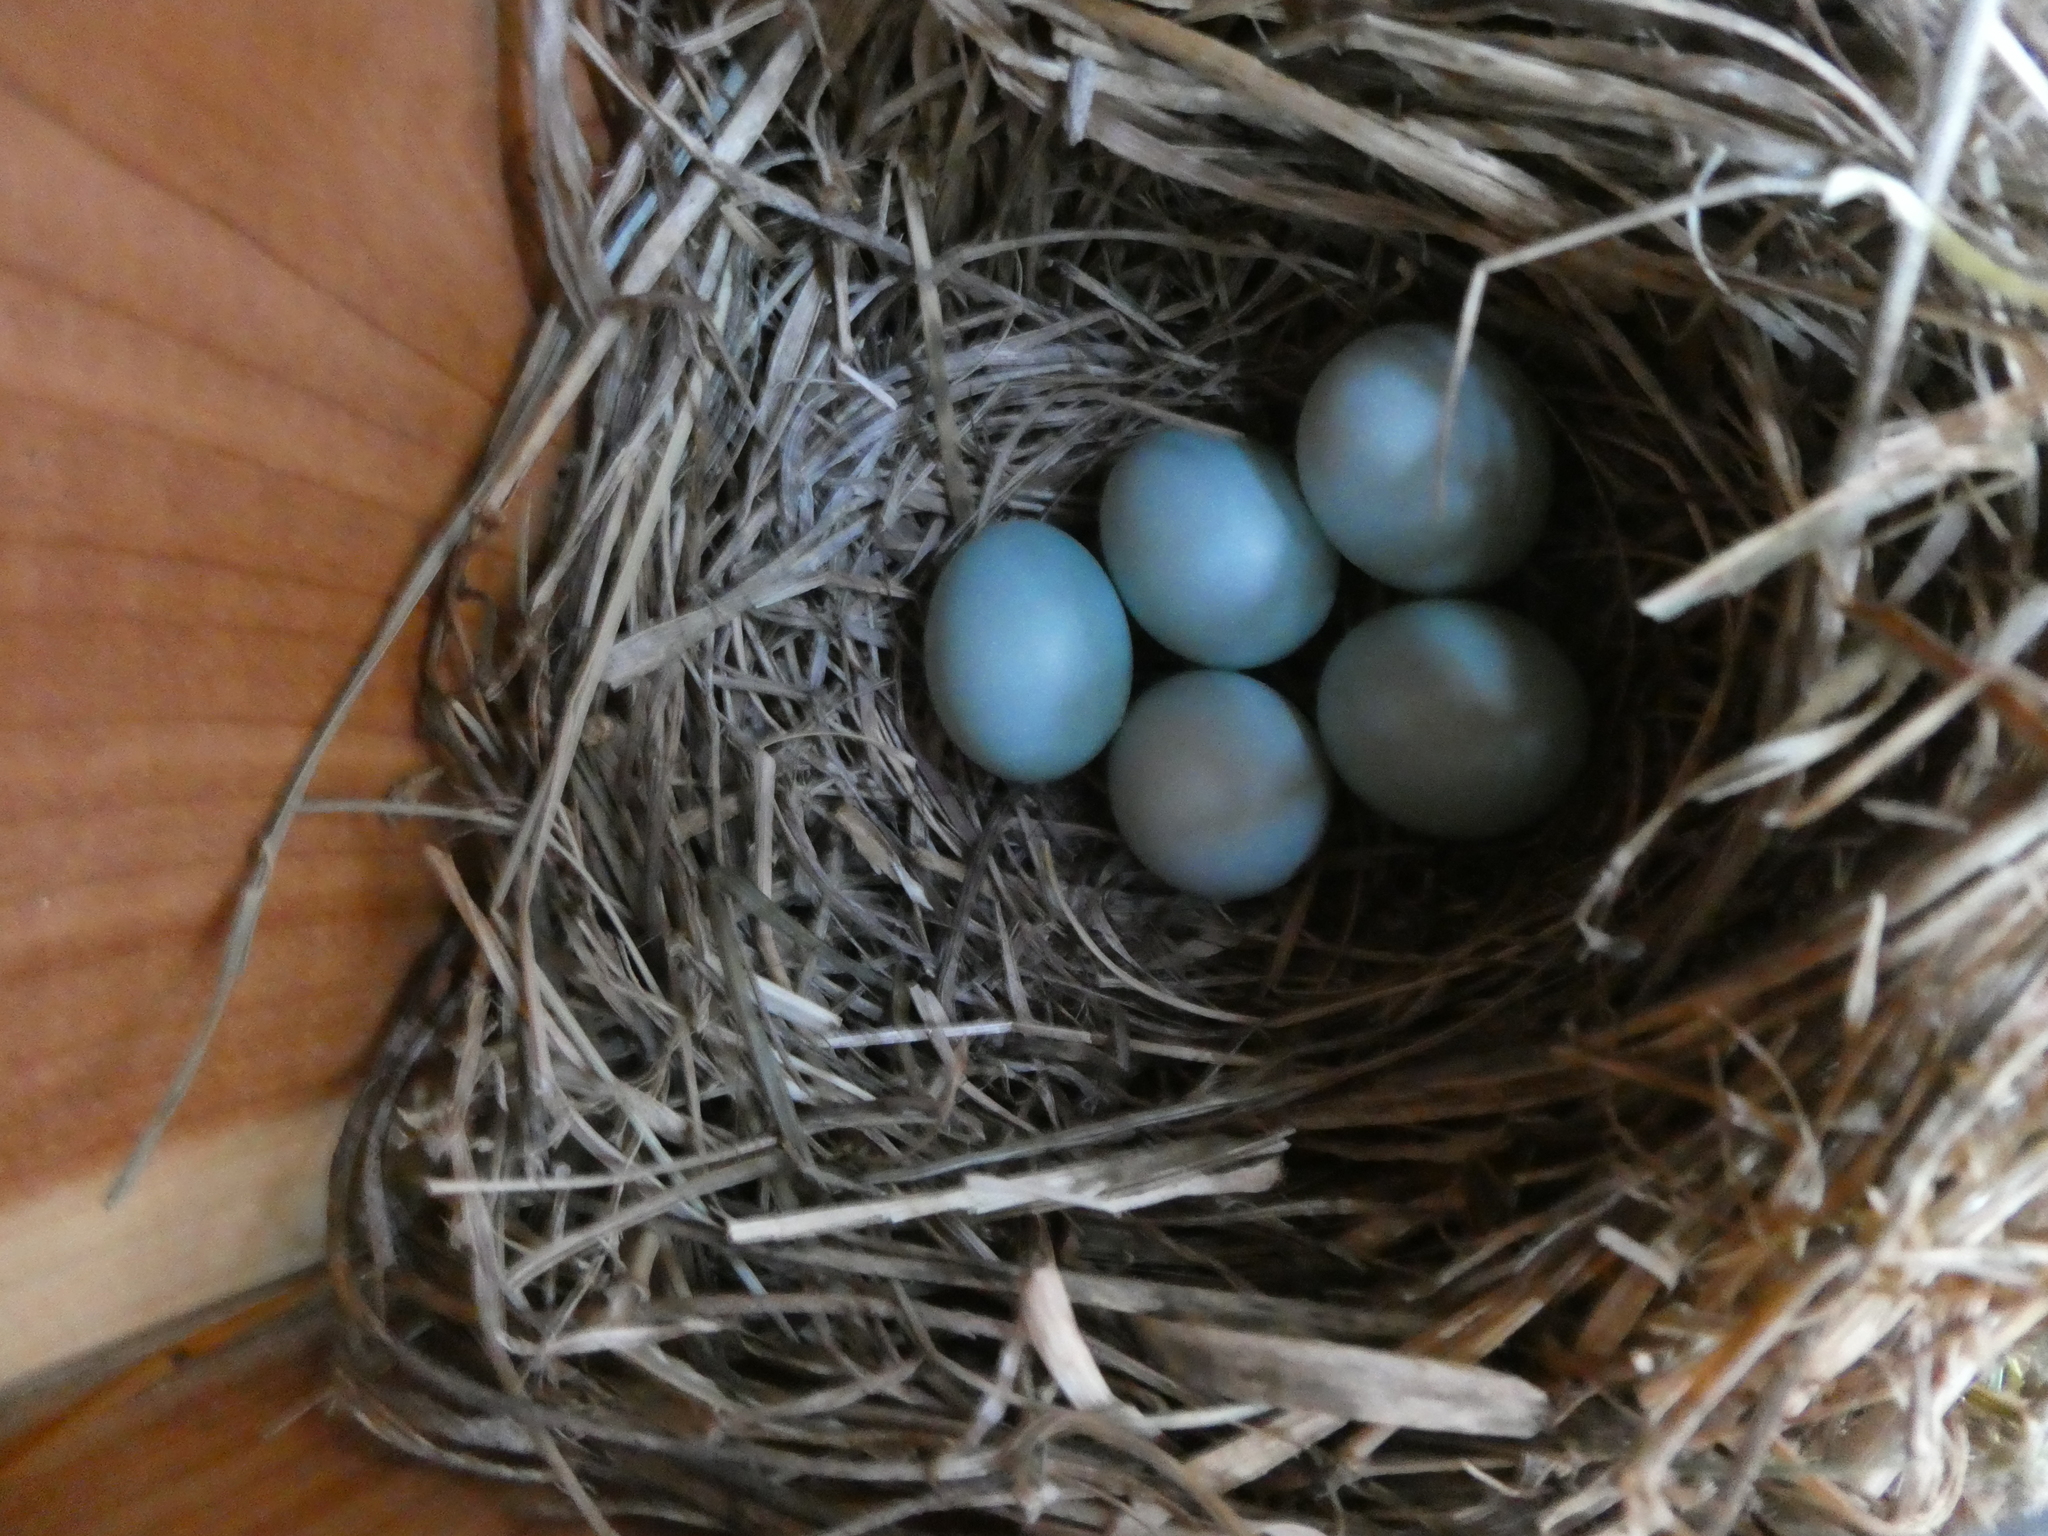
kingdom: Animalia
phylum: Chordata
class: Aves
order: Passeriformes
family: Turdidae
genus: Sialia
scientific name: Sialia sialis
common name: Eastern bluebird
